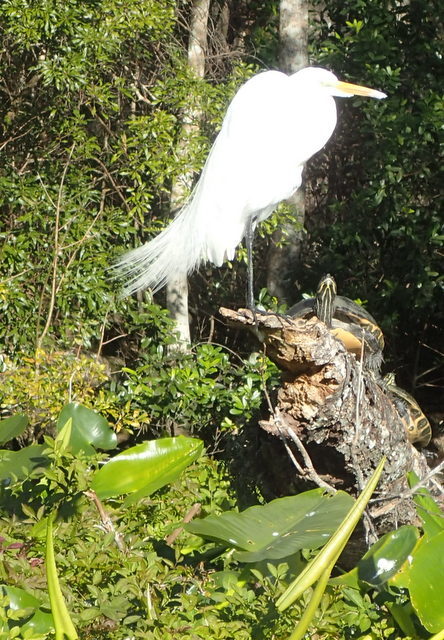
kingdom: Animalia
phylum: Chordata
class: Aves
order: Pelecaniformes
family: Ardeidae
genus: Ardea
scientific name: Ardea alba
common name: Great egret
